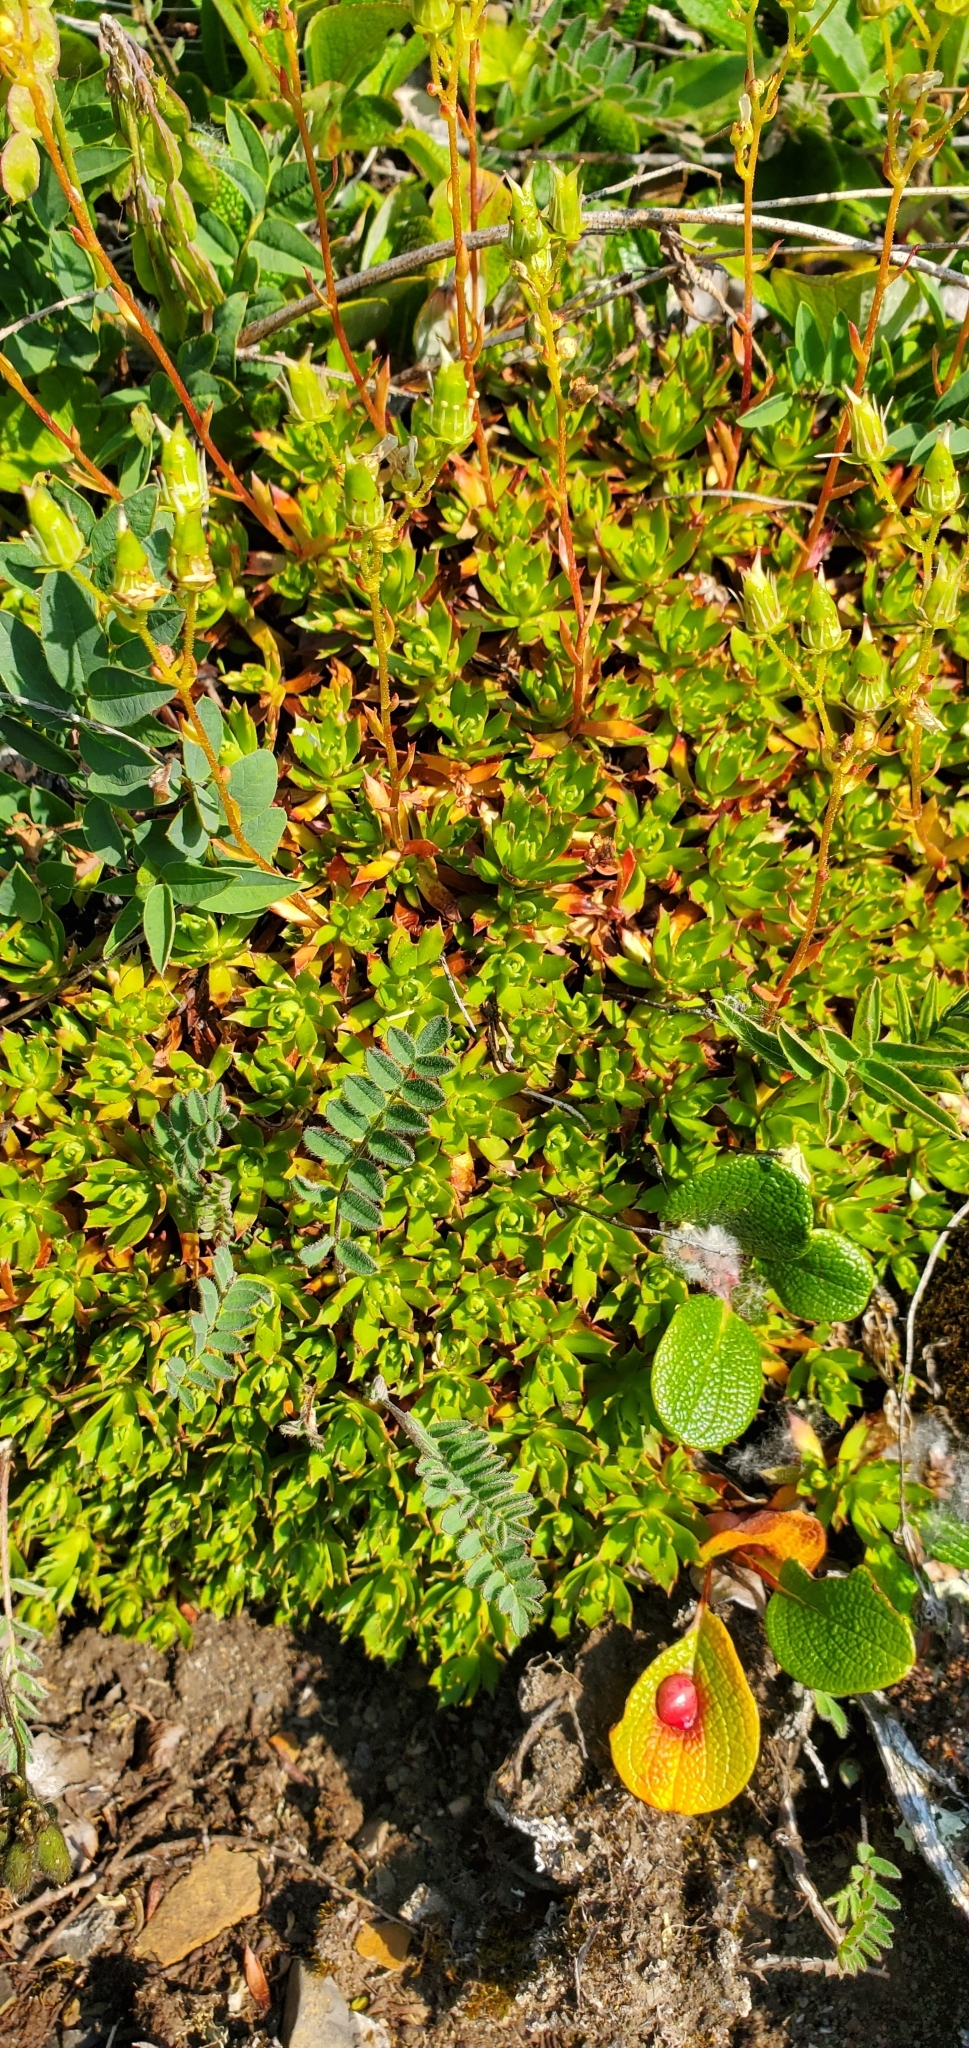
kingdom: Plantae
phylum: Tracheophyta
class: Magnoliopsida
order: Saxifragales
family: Saxifragaceae
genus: Saxifraga
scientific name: Saxifraga tricuspidata
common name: Prickly saxifrage
